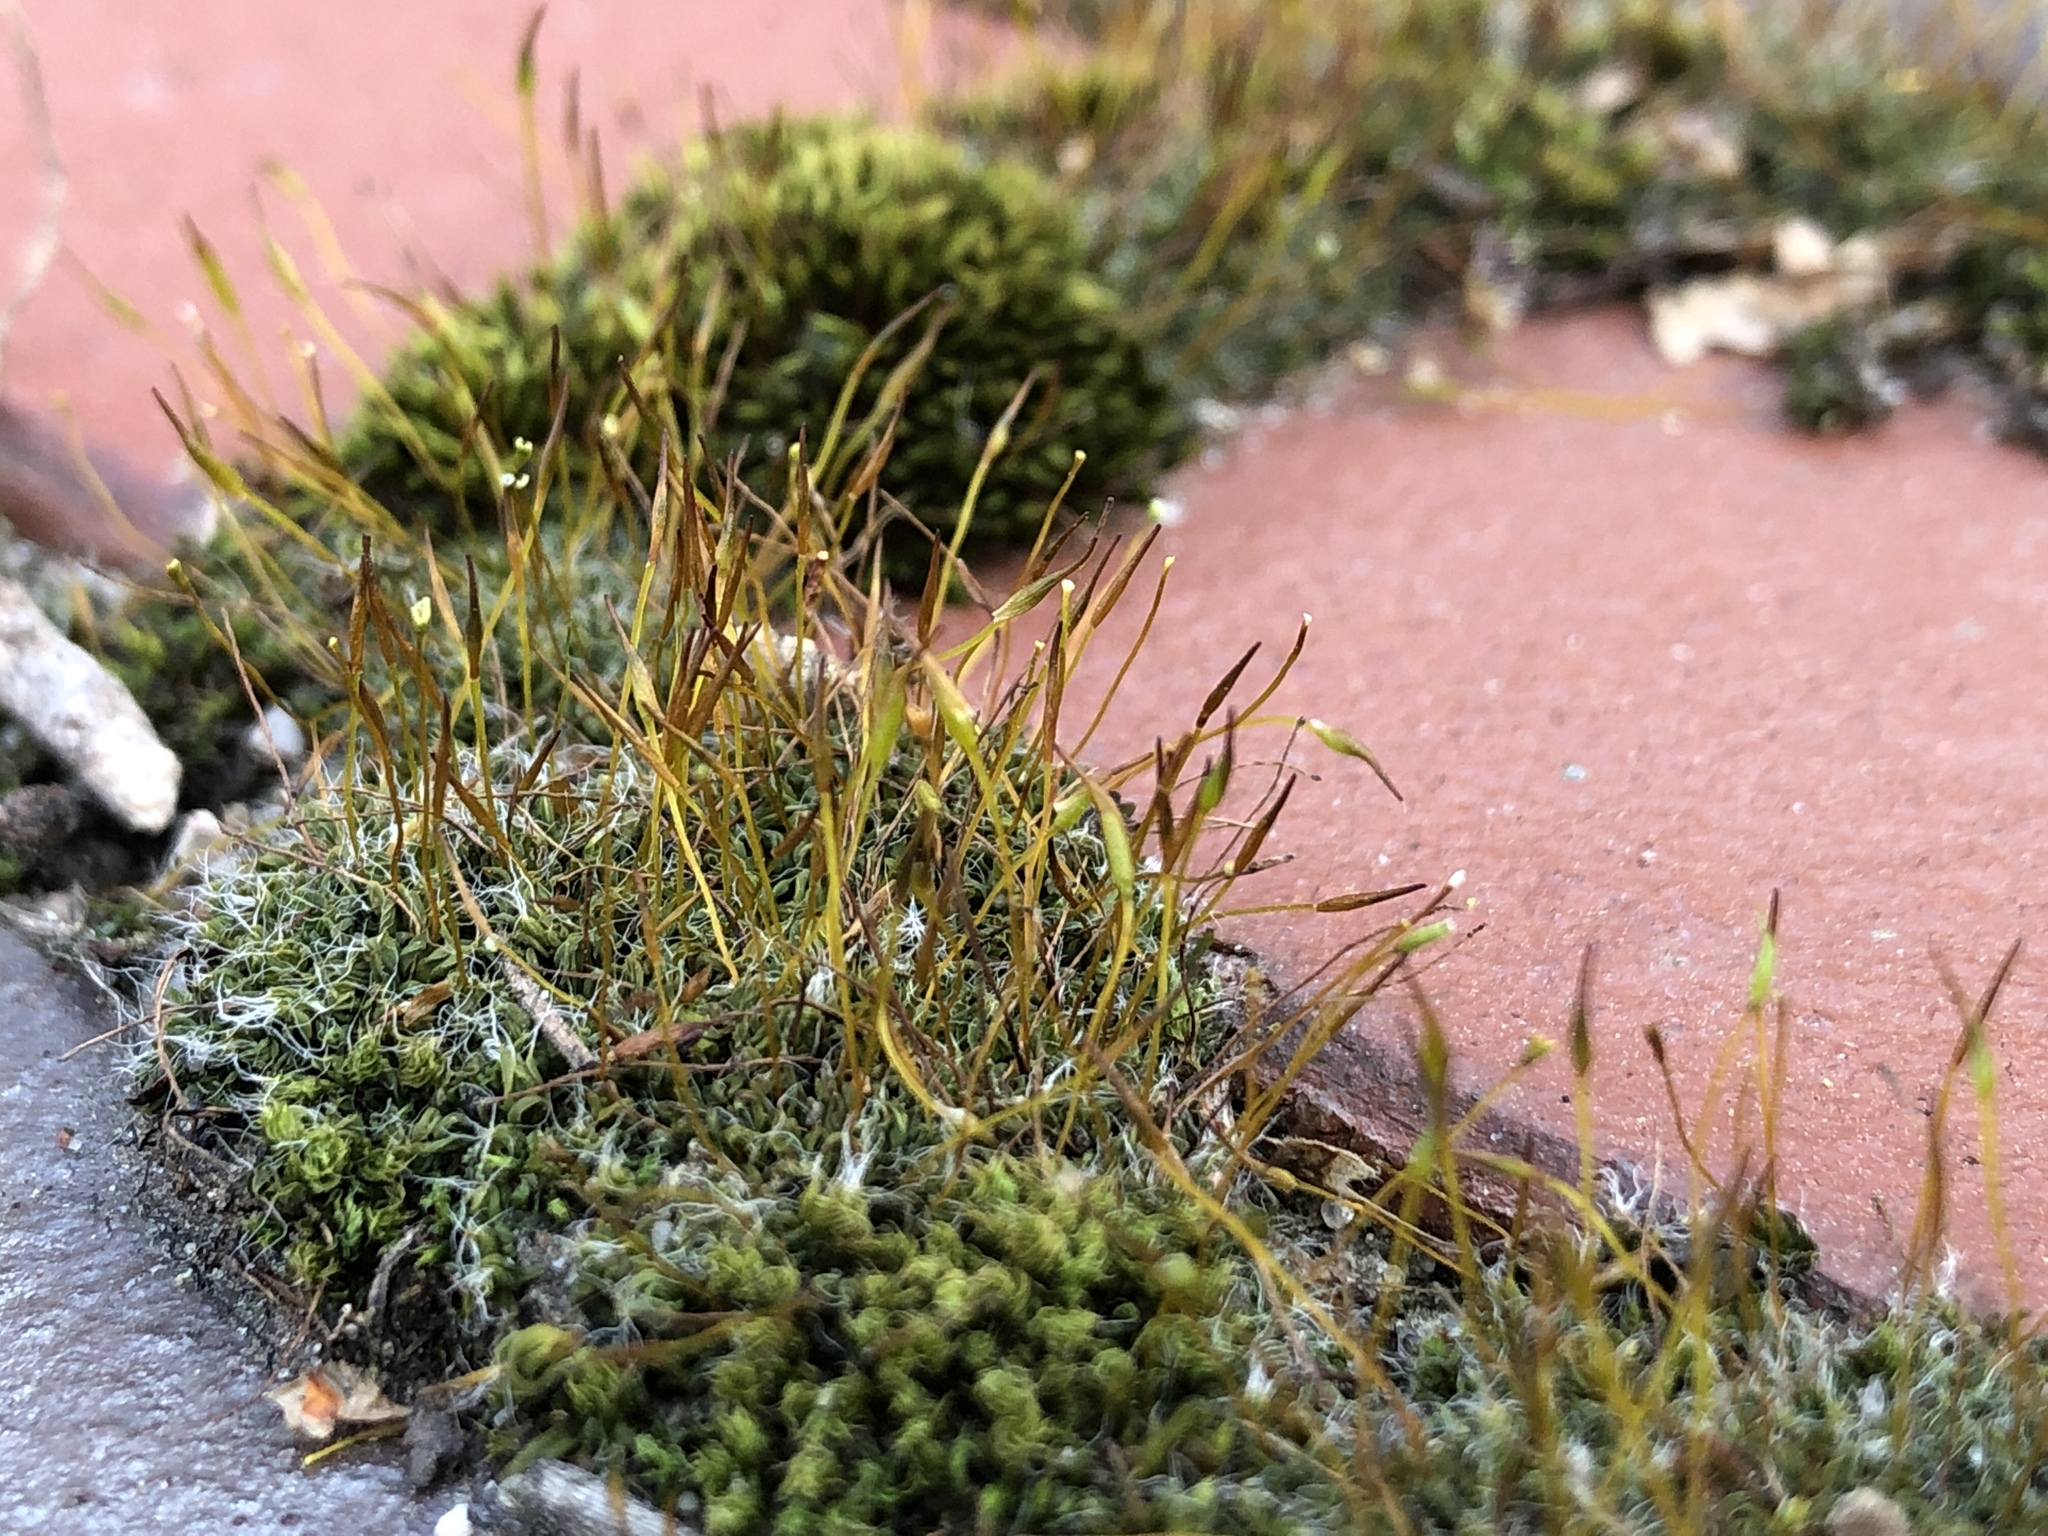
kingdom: Plantae
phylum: Bryophyta
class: Bryopsida
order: Pottiales
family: Pottiaceae
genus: Tortula
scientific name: Tortula muralis
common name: Wall screw-moss
